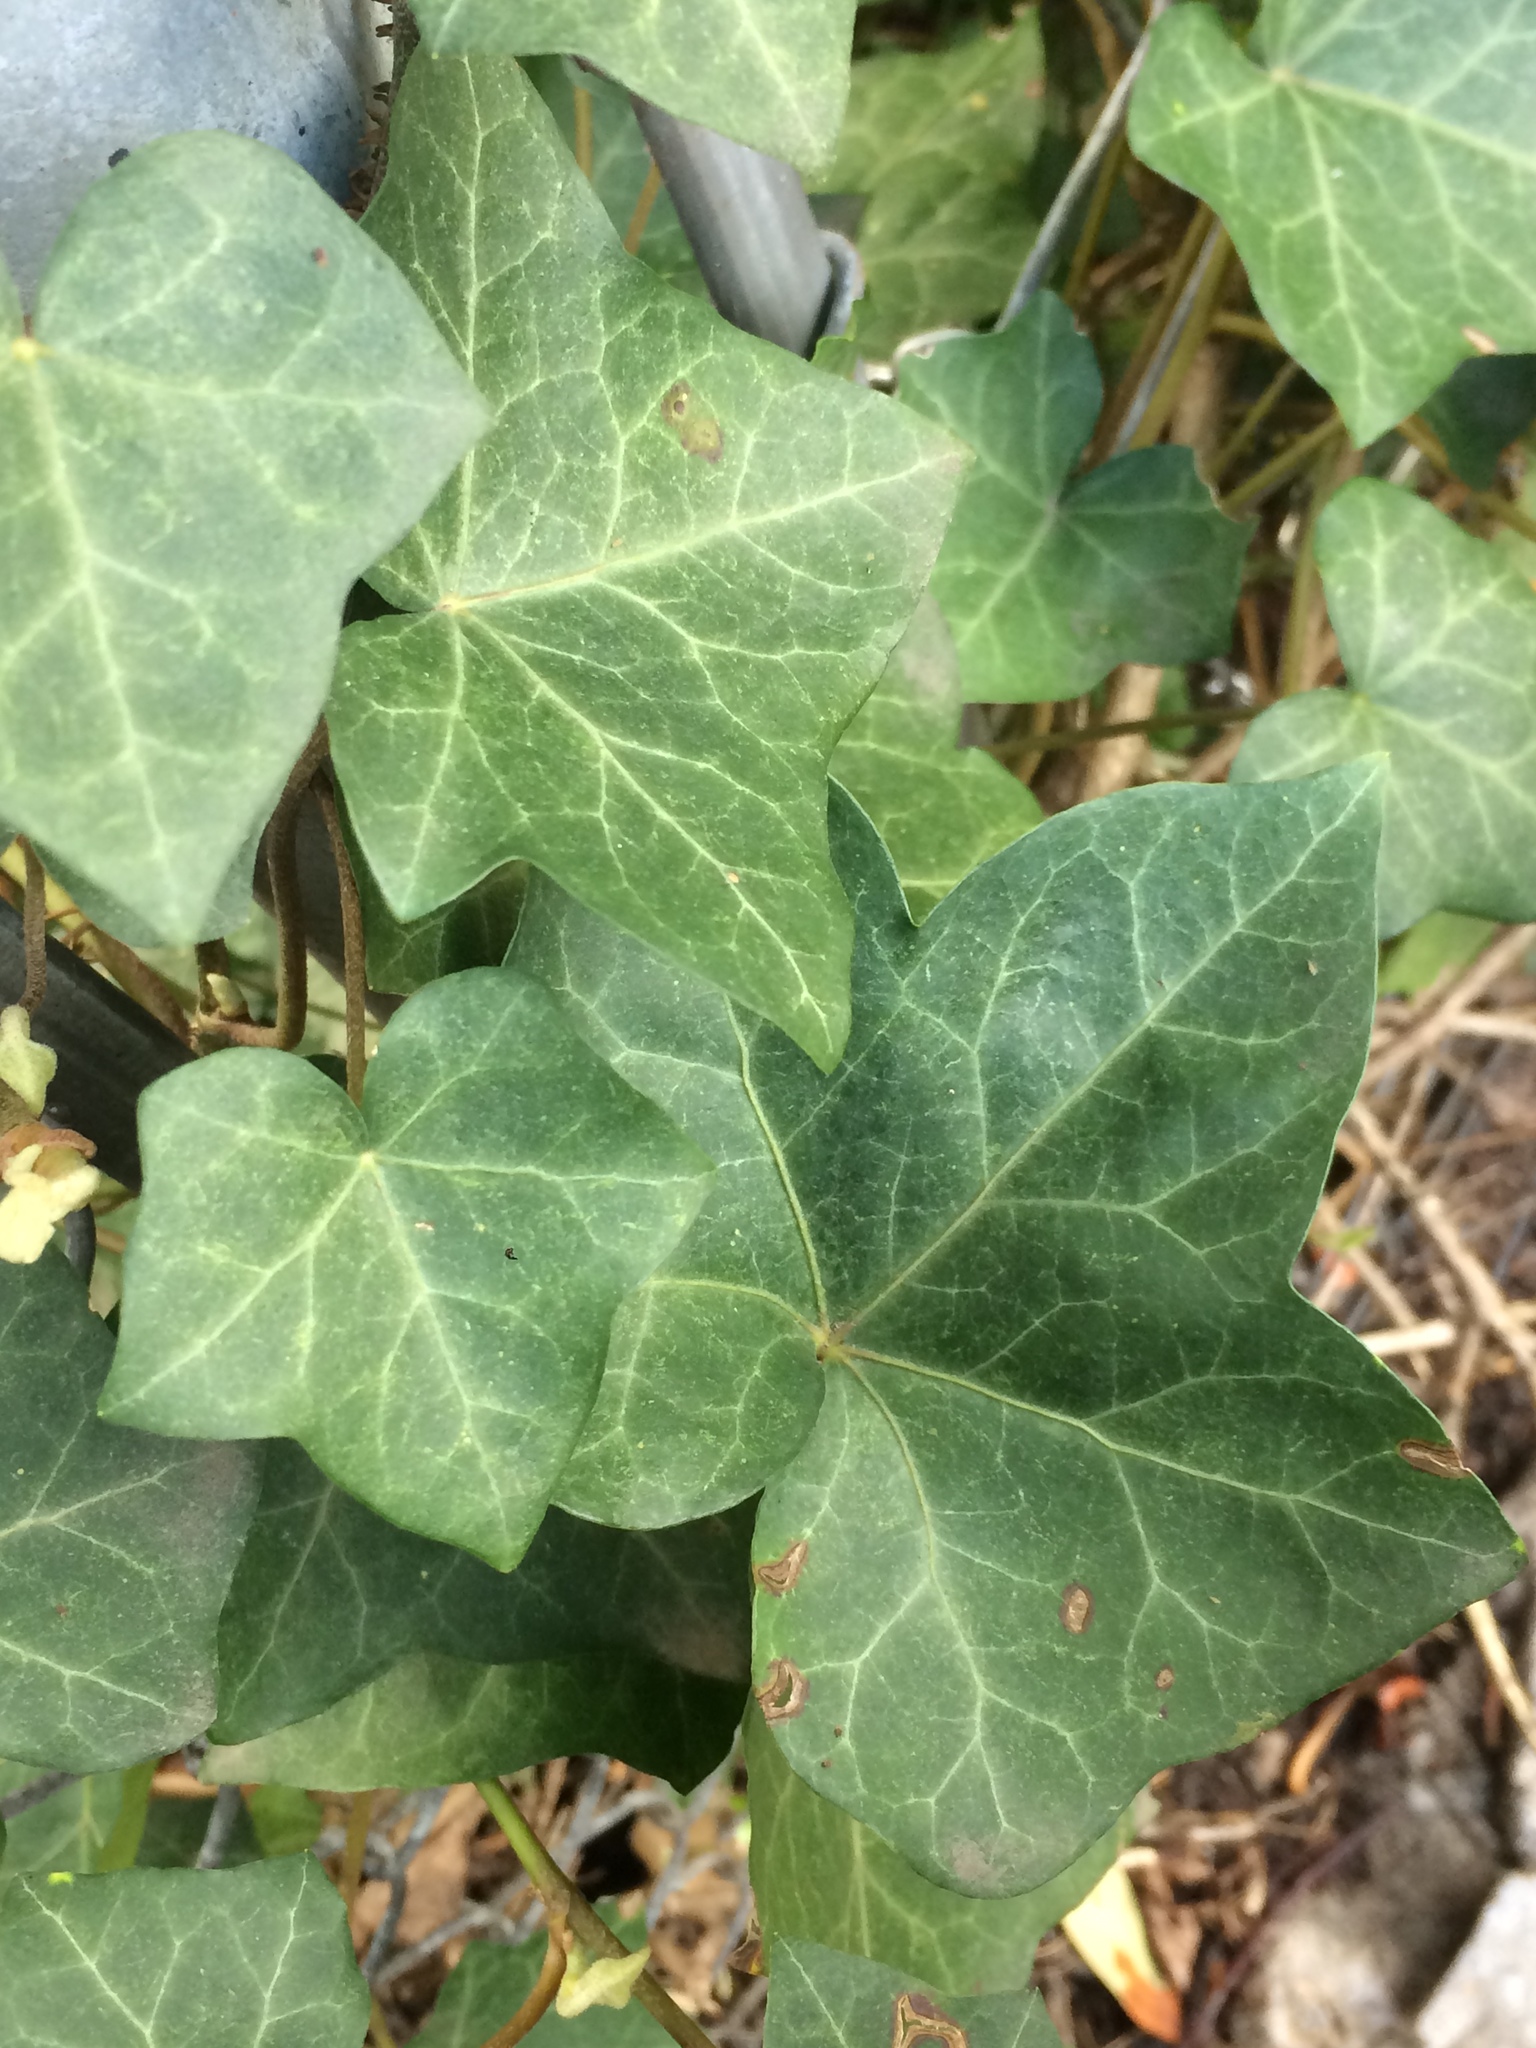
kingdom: Plantae
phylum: Tracheophyta
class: Magnoliopsida
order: Apiales
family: Araliaceae
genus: Hedera
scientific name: Hedera helix
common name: Ivy
